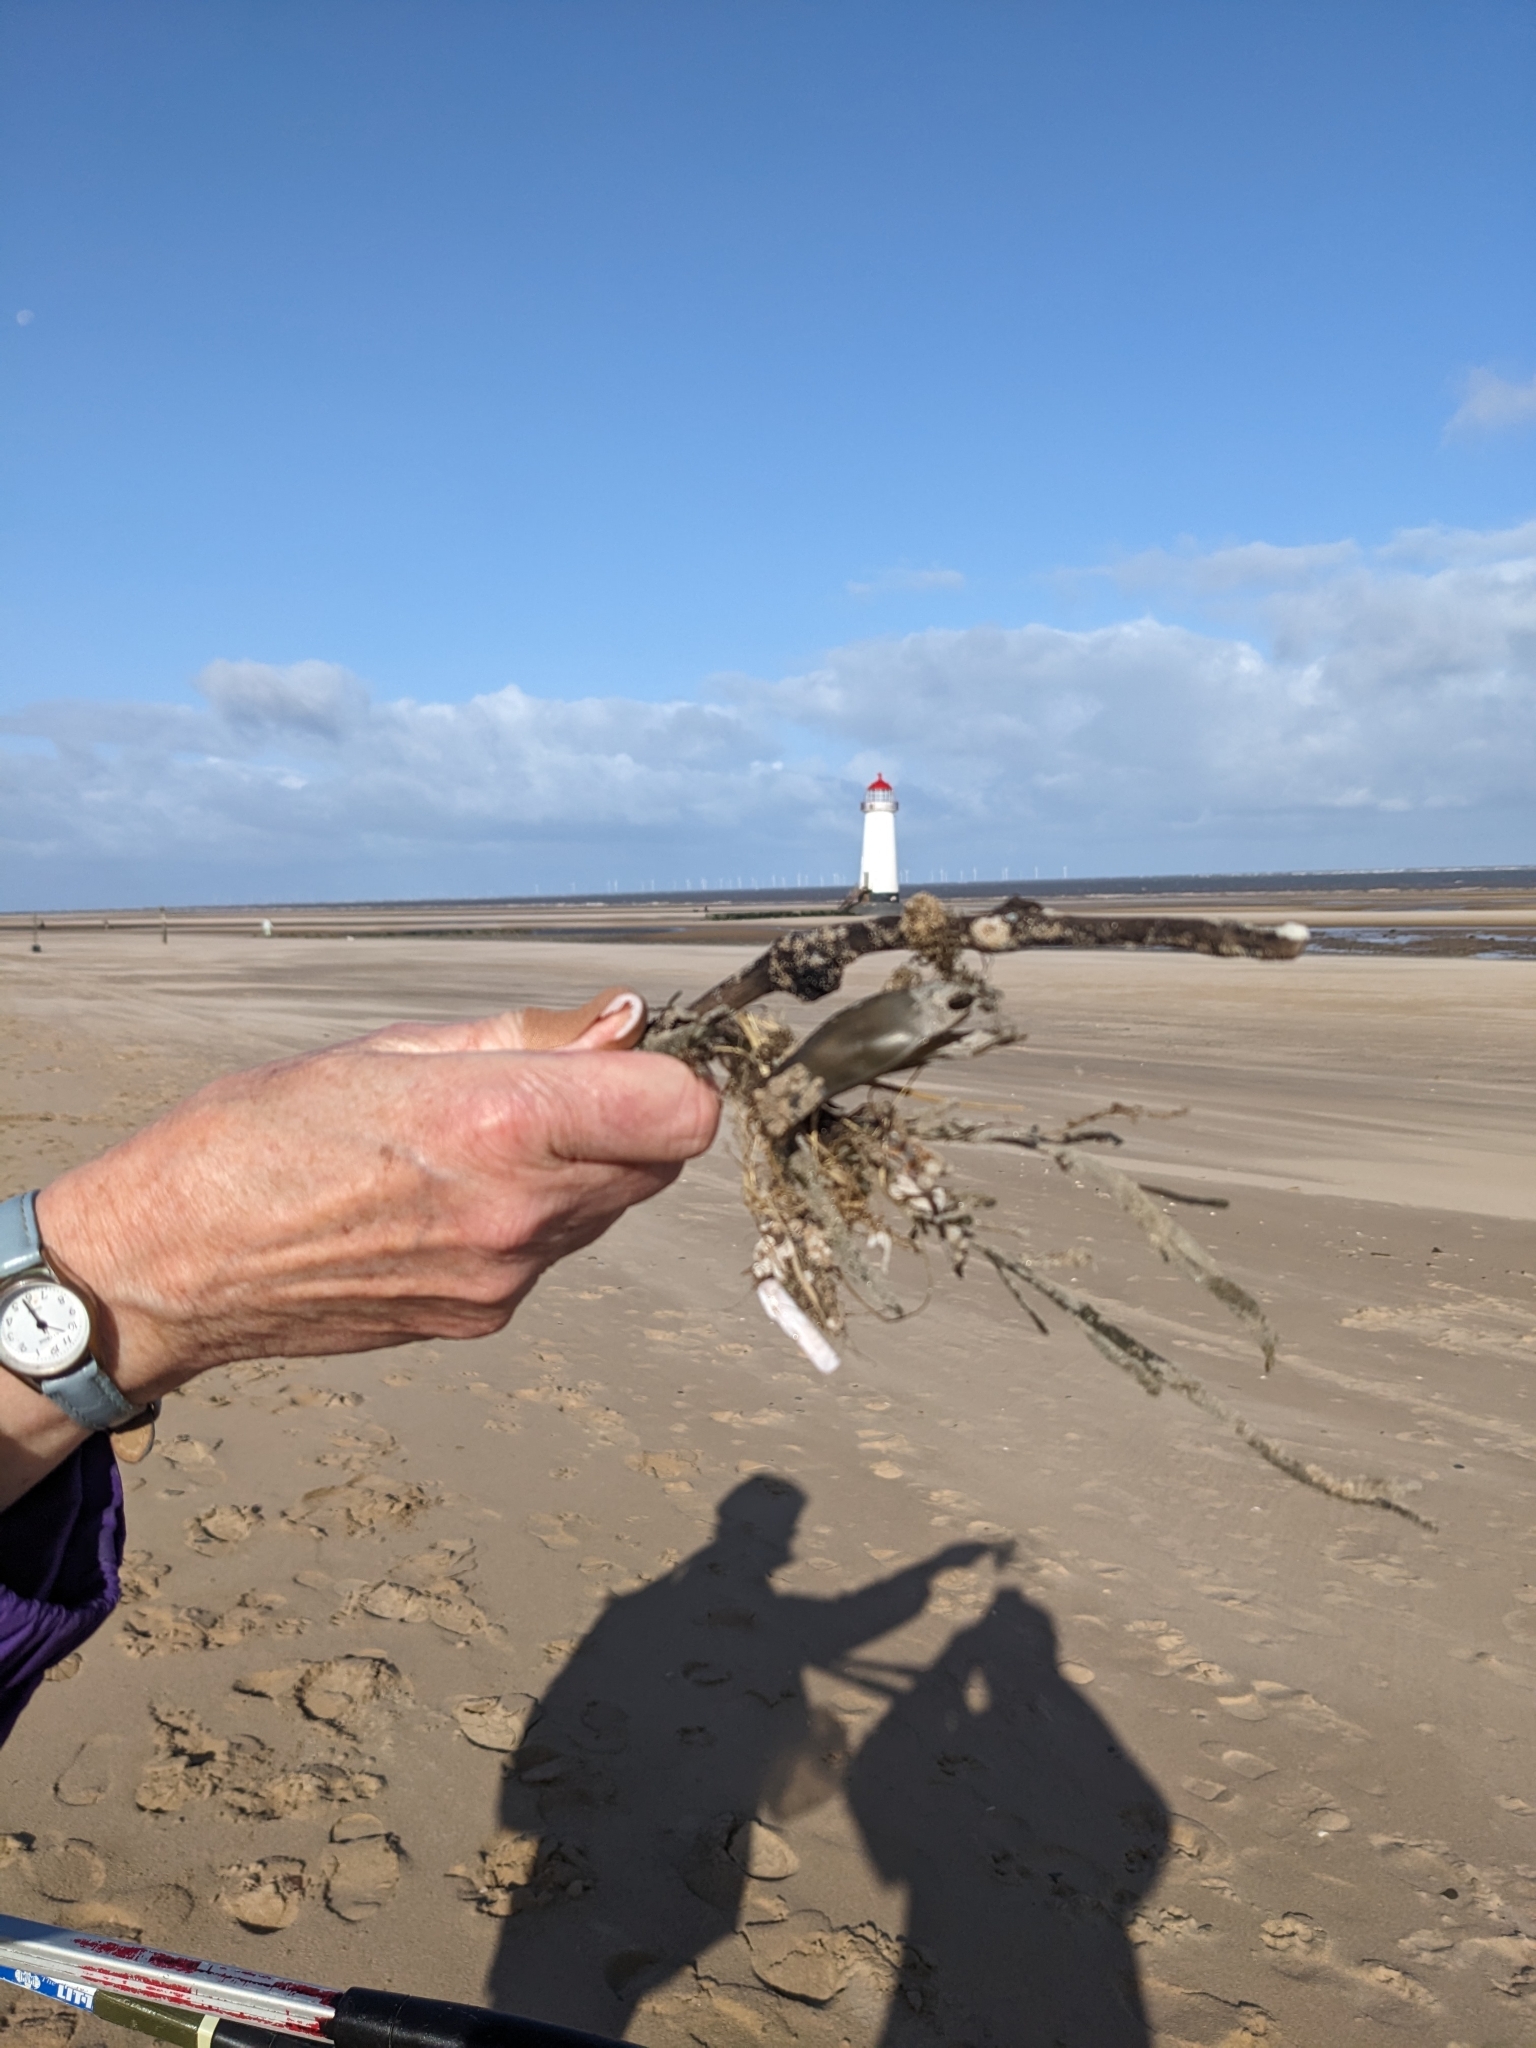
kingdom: Animalia
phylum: Chordata
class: Elasmobranchii
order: Carcharhiniformes
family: Scyliorhinidae
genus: Scyliorhinus
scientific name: Scyliorhinus canicula
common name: Lesser spotted dogfish
